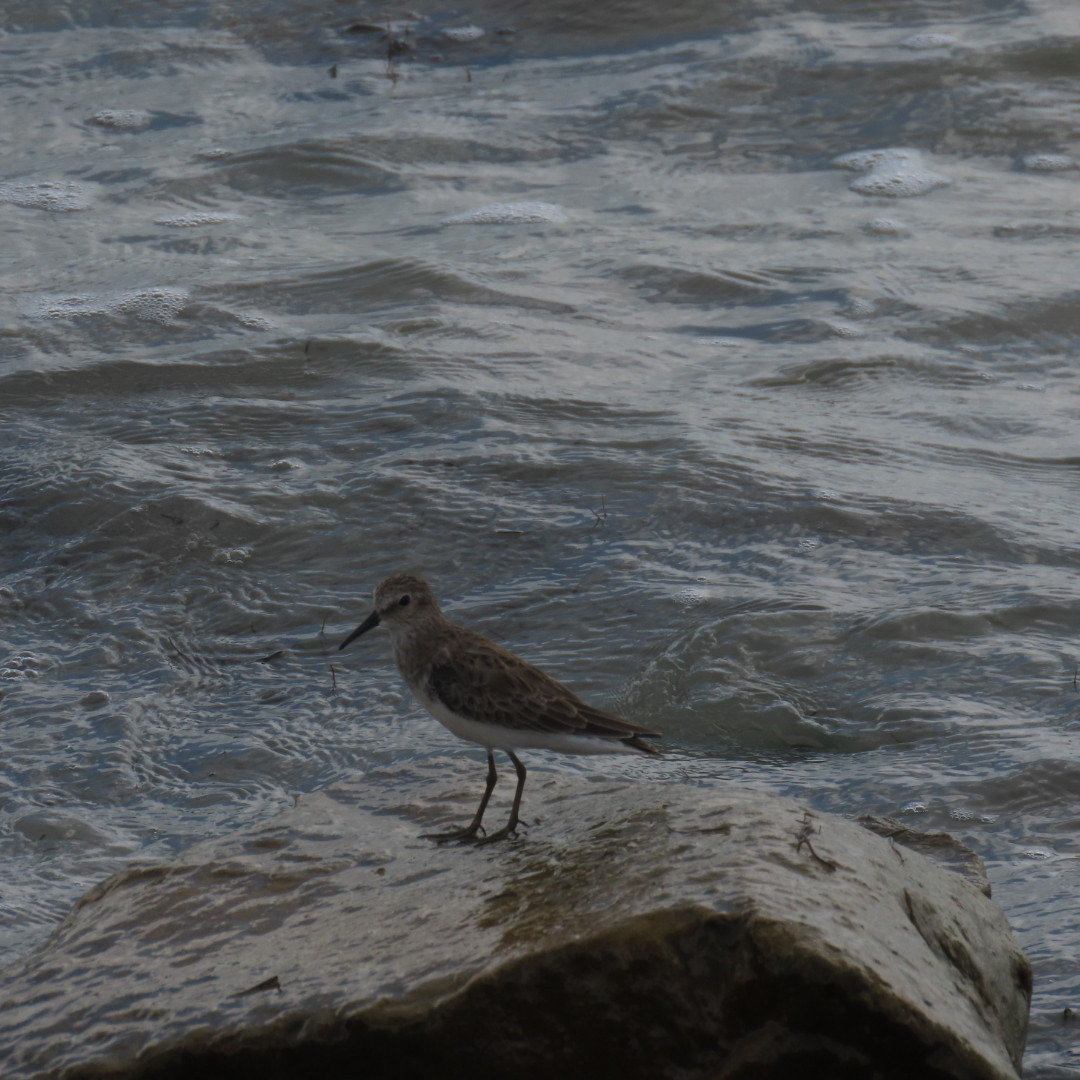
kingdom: Animalia
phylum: Chordata
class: Aves
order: Charadriiformes
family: Scolopacidae
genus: Calidris
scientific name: Calidris pusilla
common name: Semipalmated sandpiper
